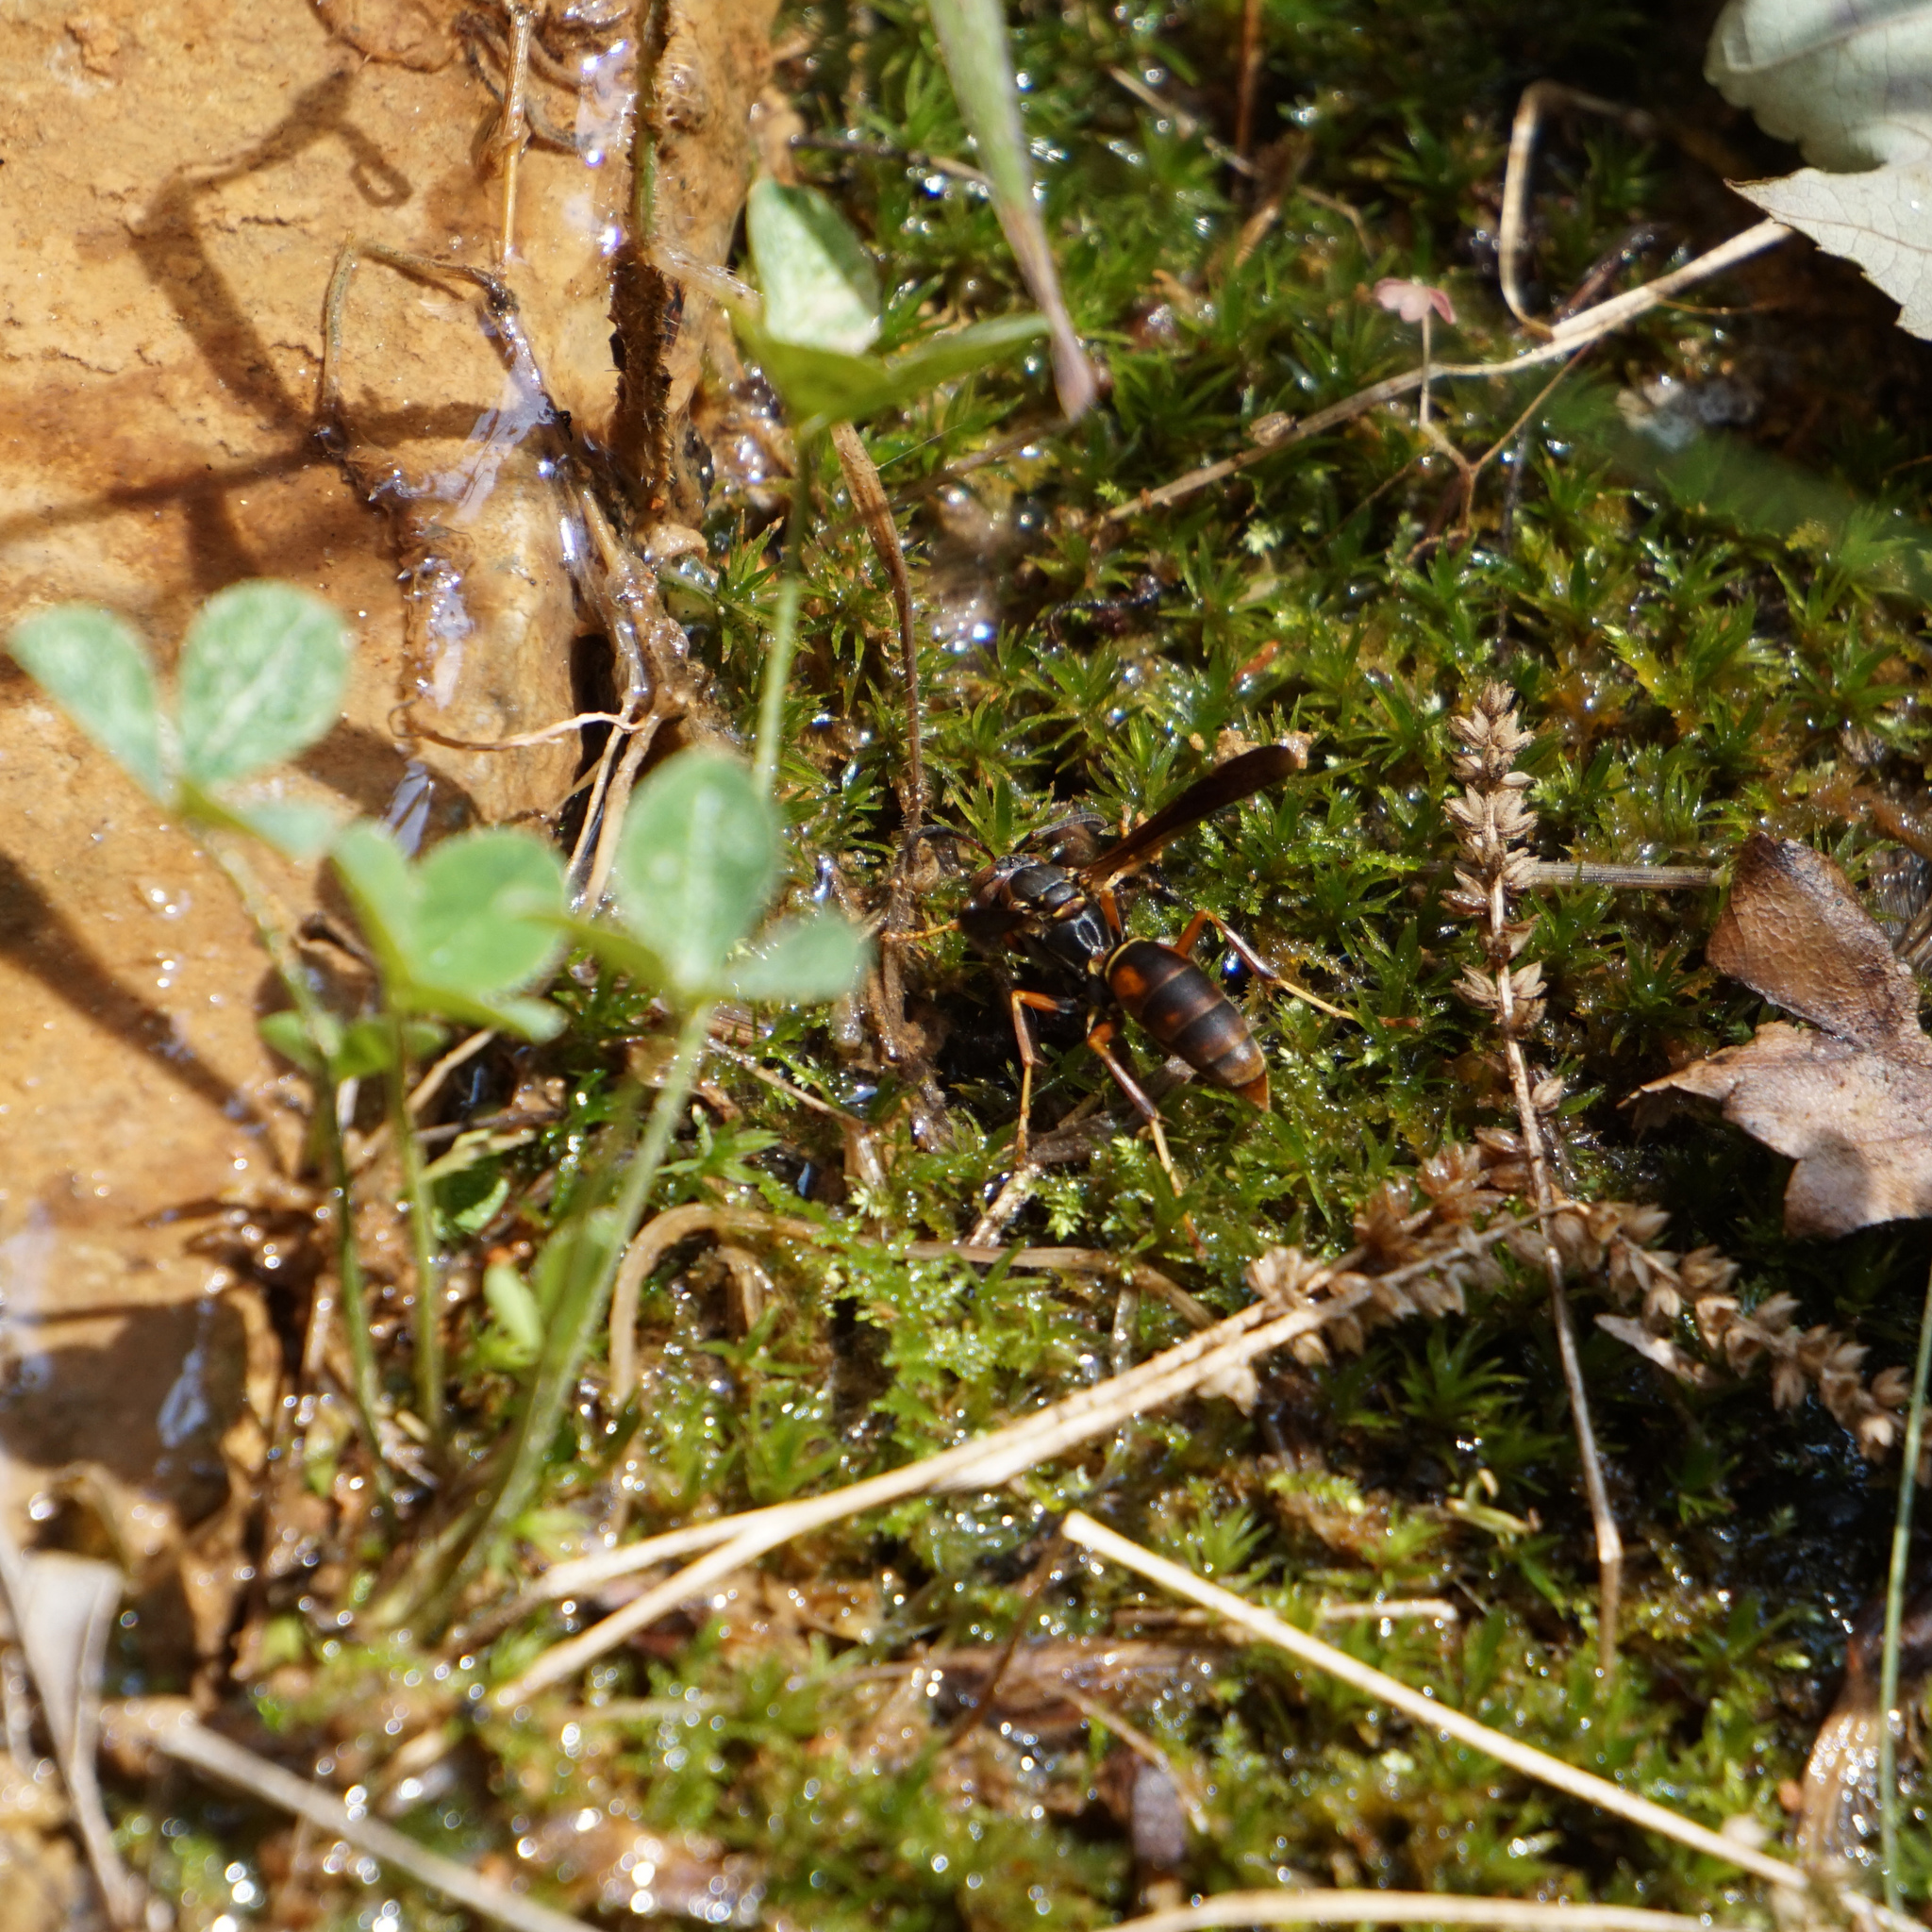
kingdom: Animalia
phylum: Arthropoda
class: Insecta
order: Hymenoptera
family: Eumenidae
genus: Polistes
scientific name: Polistes fuscatus
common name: Dark paper wasp
